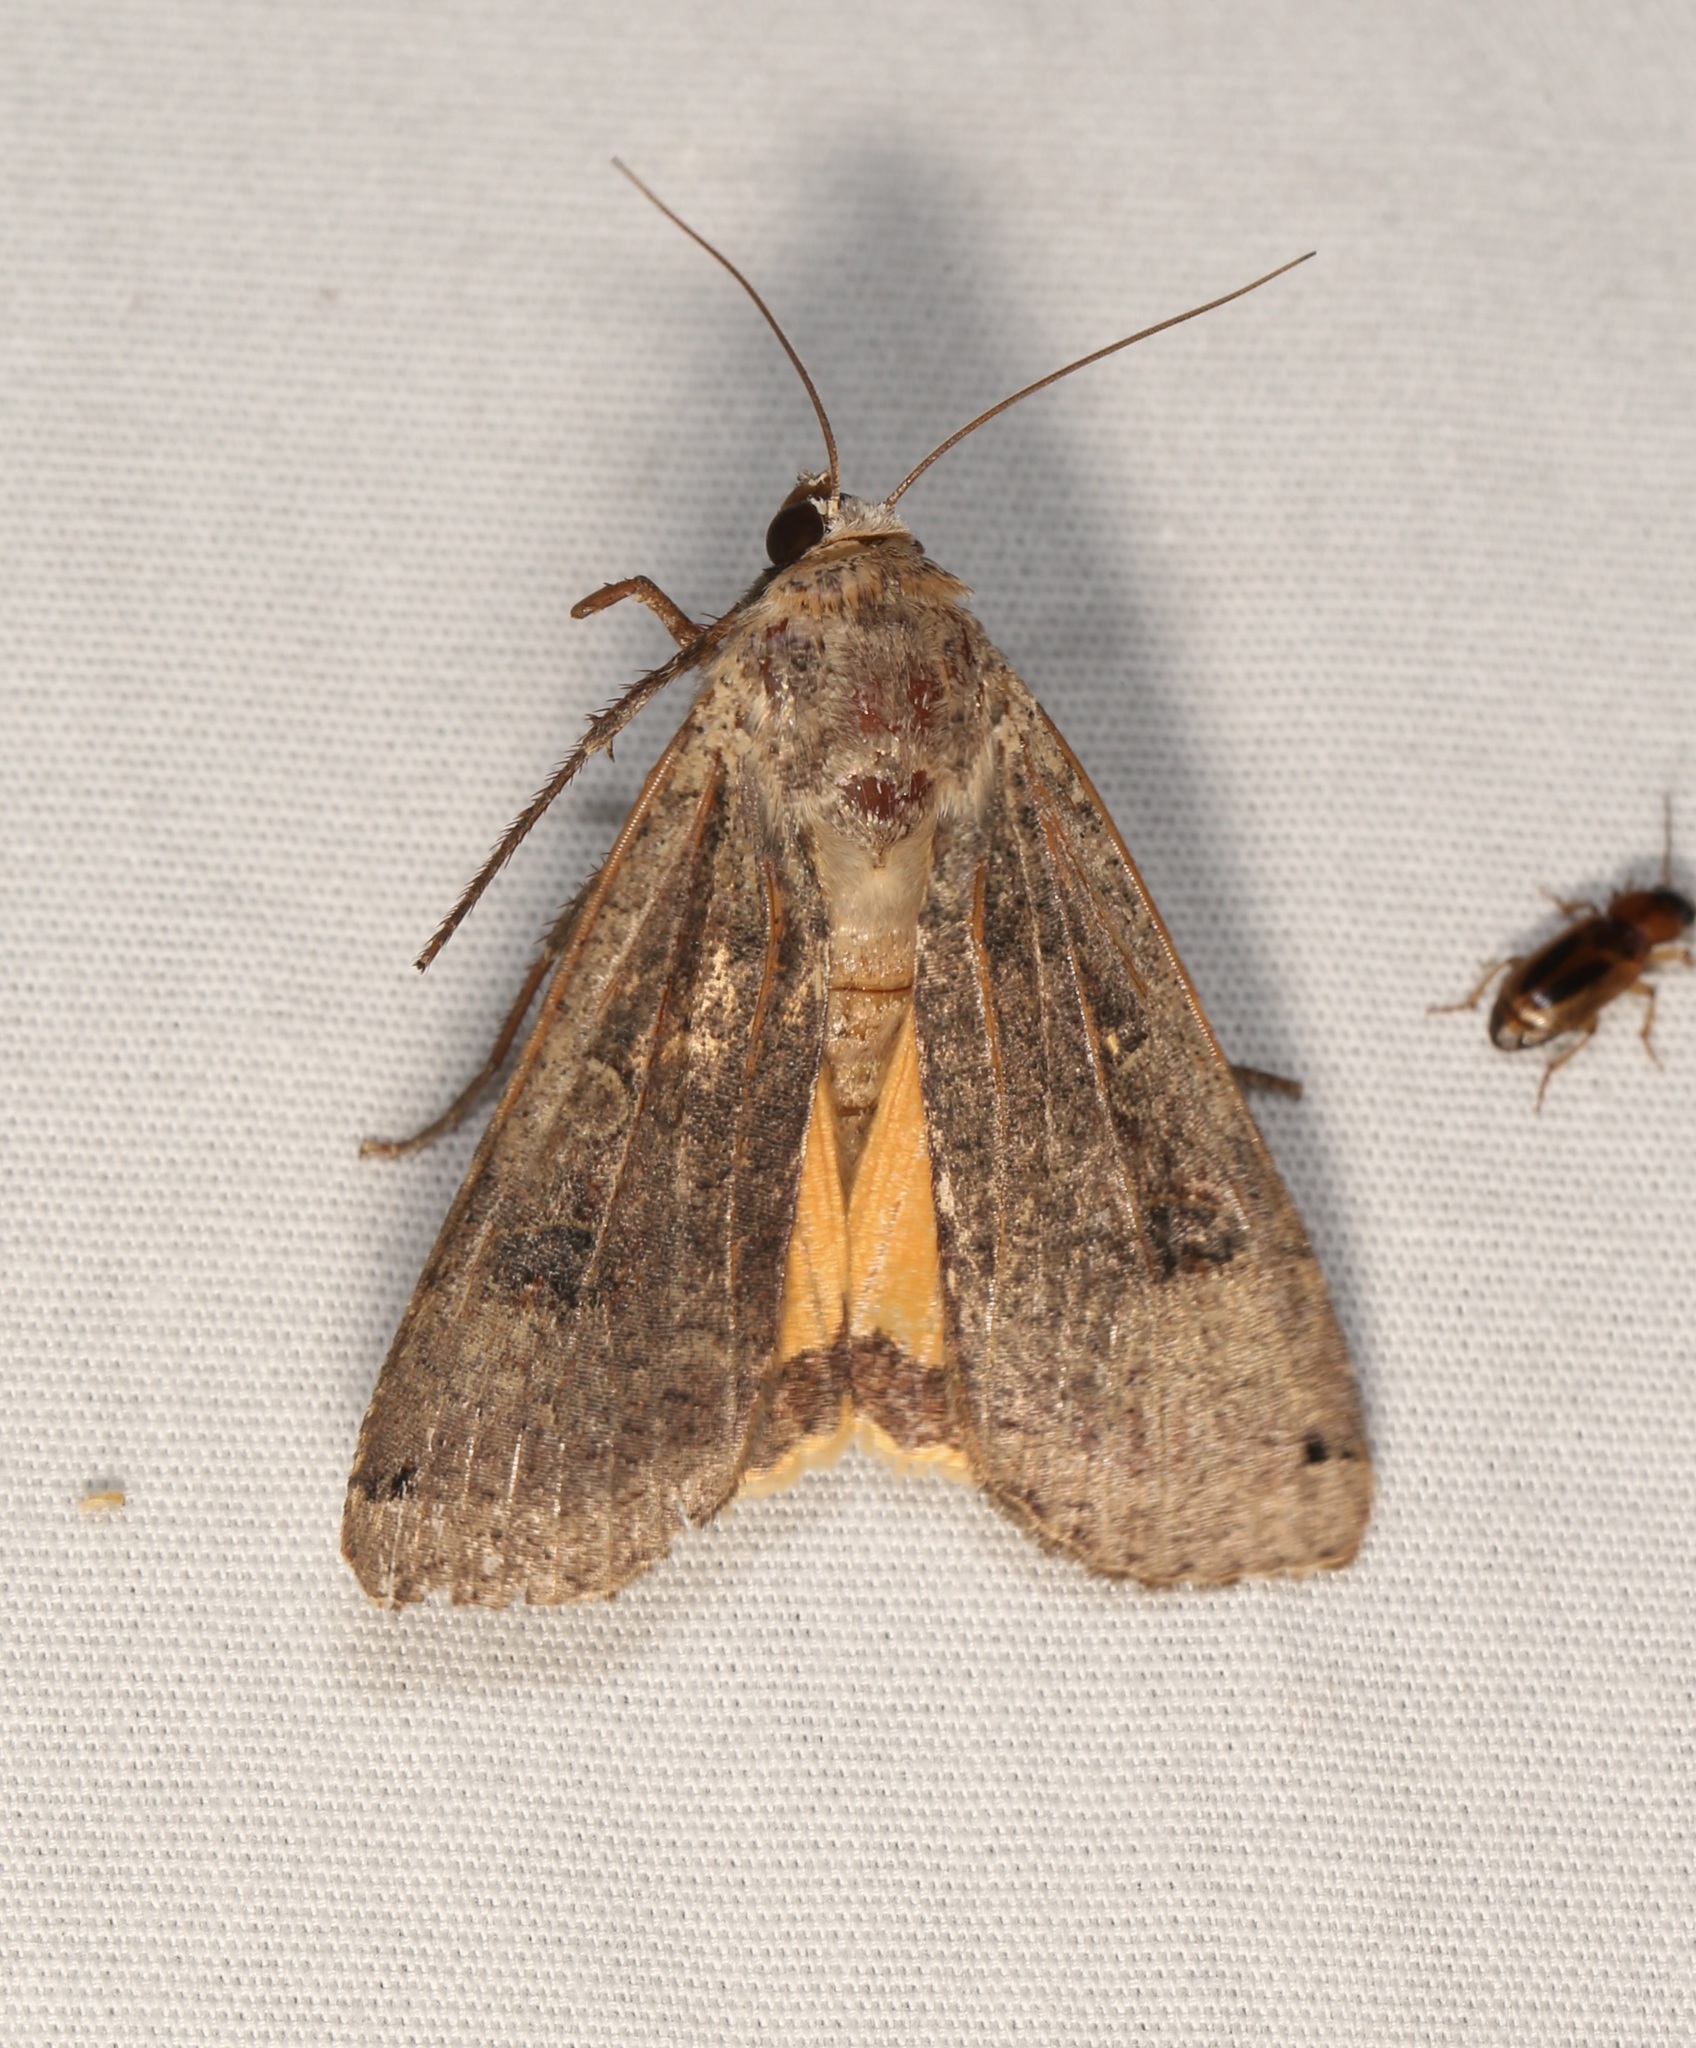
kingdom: Animalia
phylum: Arthropoda
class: Insecta
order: Lepidoptera
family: Noctuidae
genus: Noctua
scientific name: Noctua pronuba
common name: Large yellow underwing
